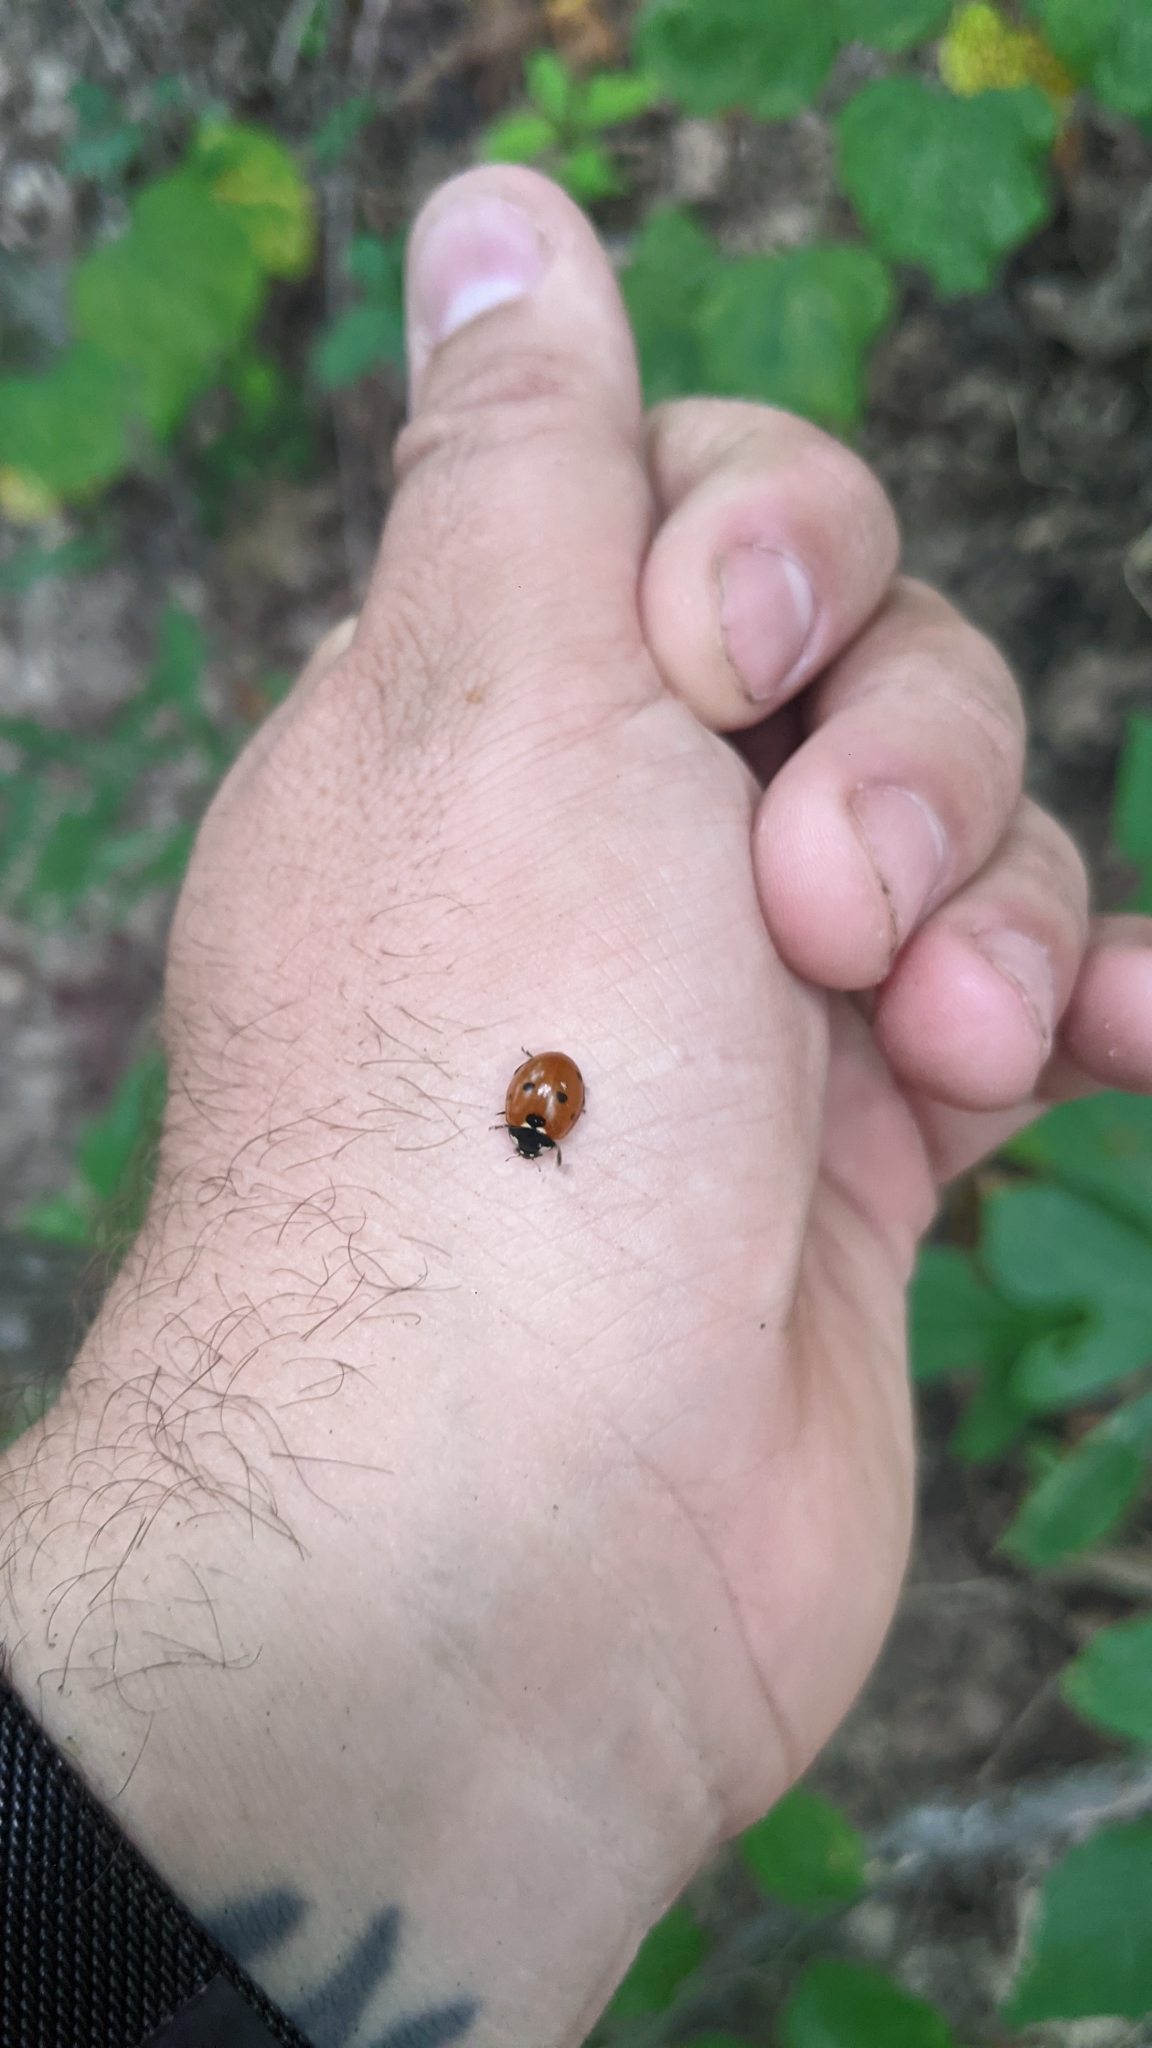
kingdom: Animalia
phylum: Arthropoda
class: Insecta
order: Coleoptera
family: Coccinellidae
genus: Coccinella
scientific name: Coccinella septempunctata
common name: Sevenspotted lady beetle
